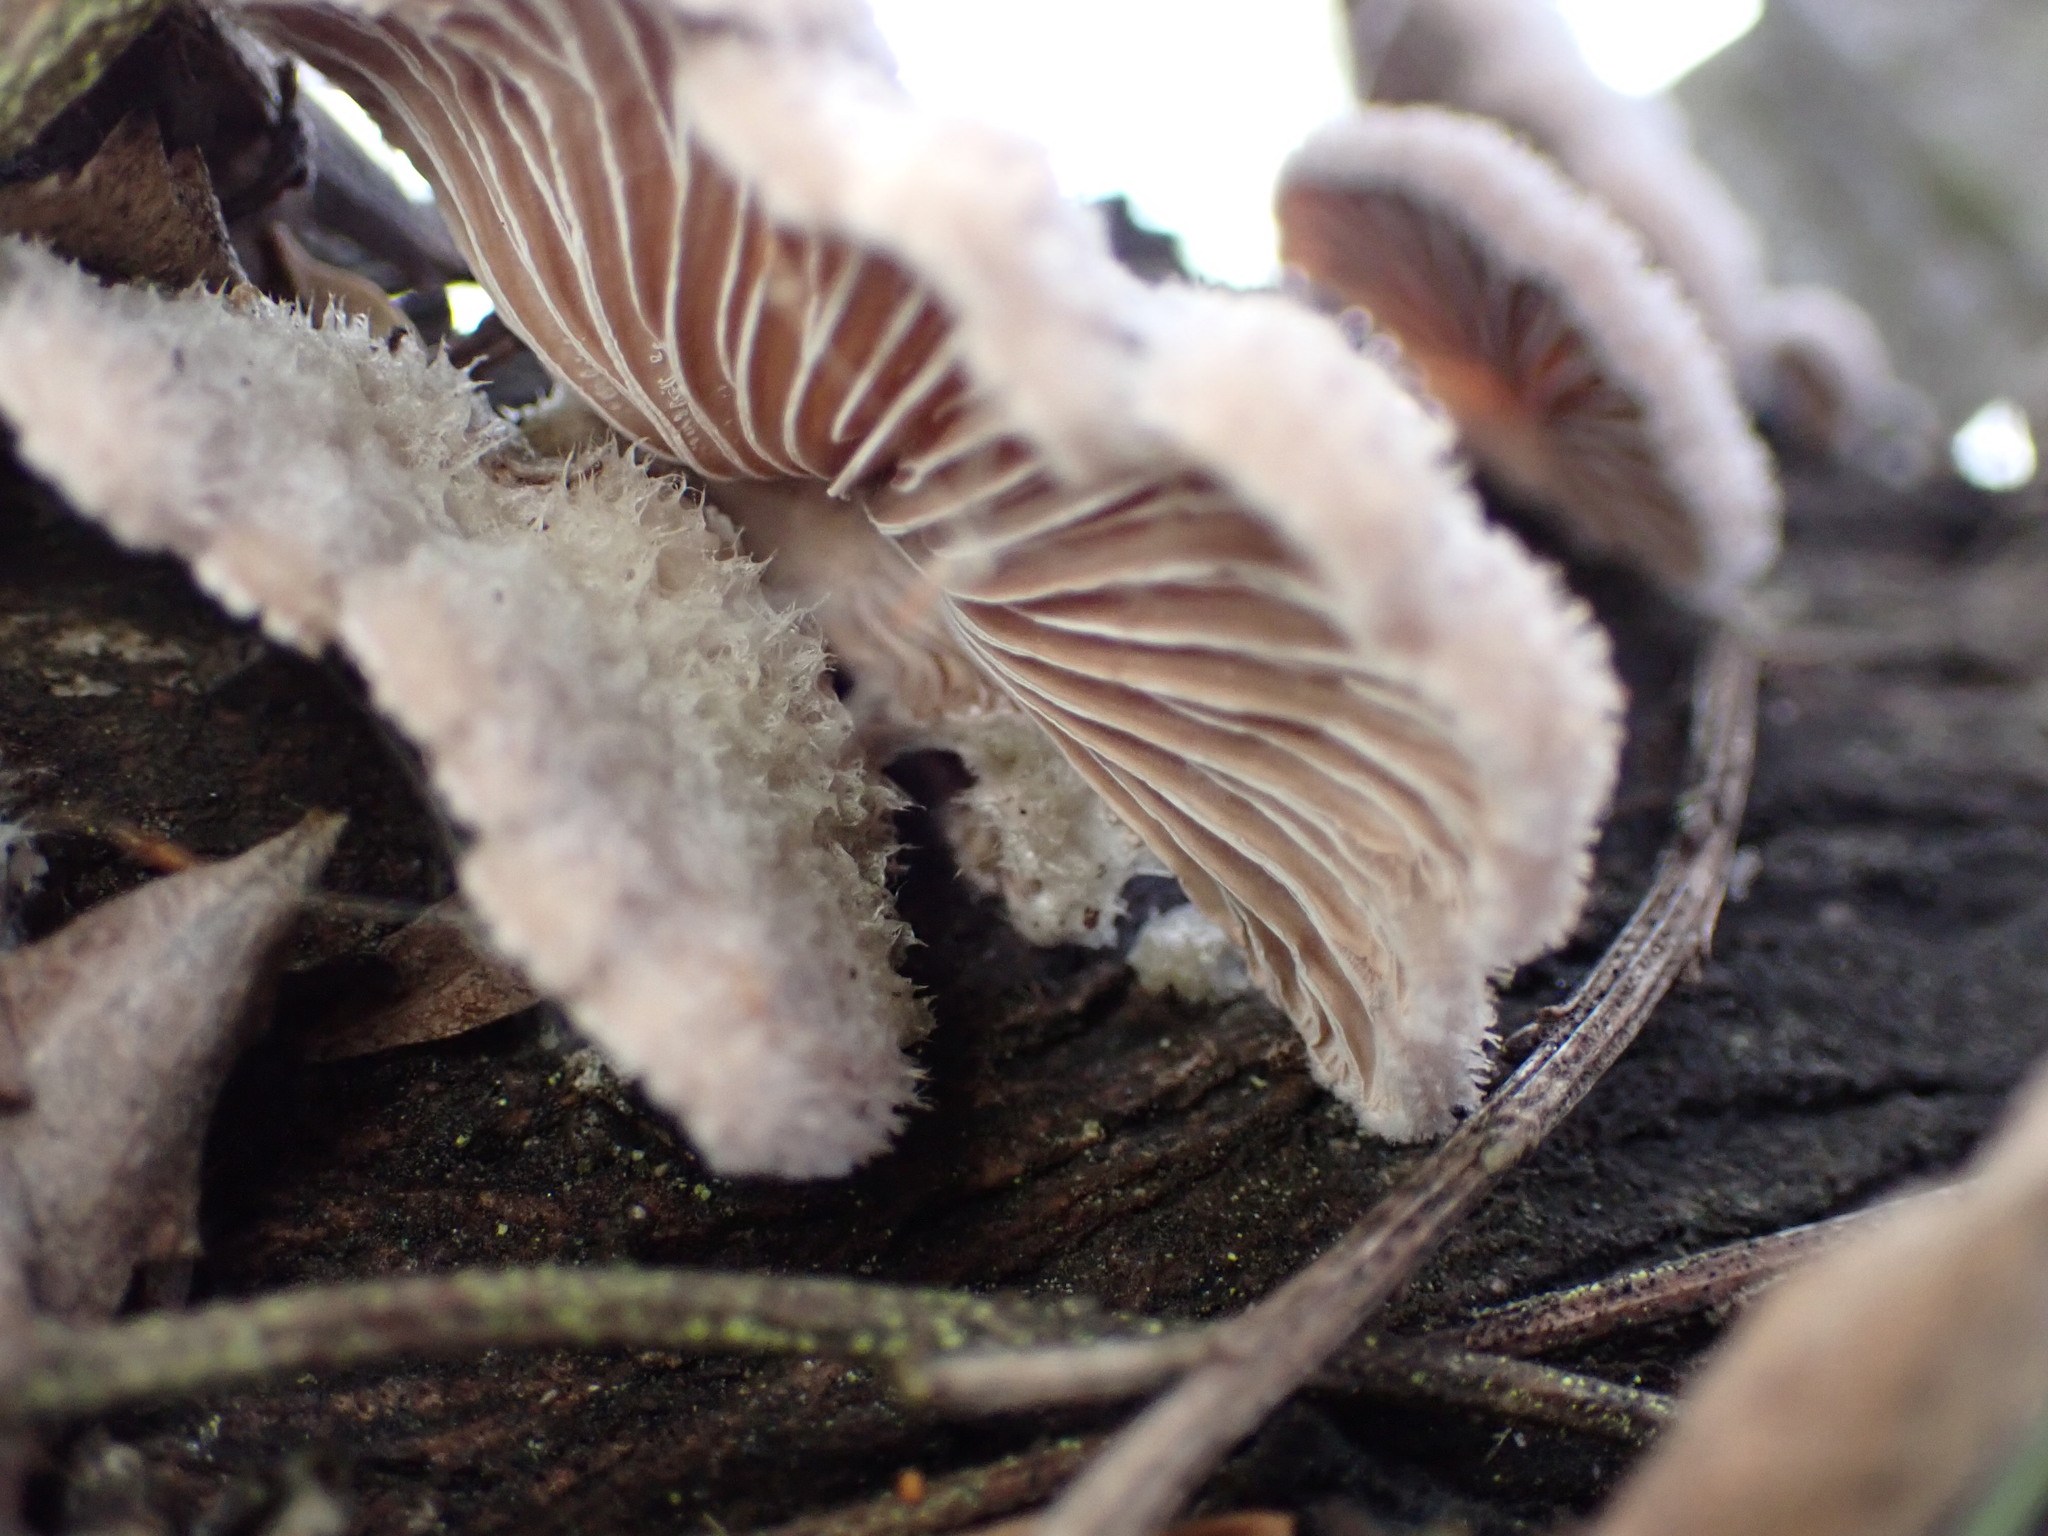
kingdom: Fungi
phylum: Basidiomycota
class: Agaricomycetes
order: Agaricales
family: Schizophyllaceae
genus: Schizophyllum
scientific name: Schizophyllum commune
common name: Common porecrust
